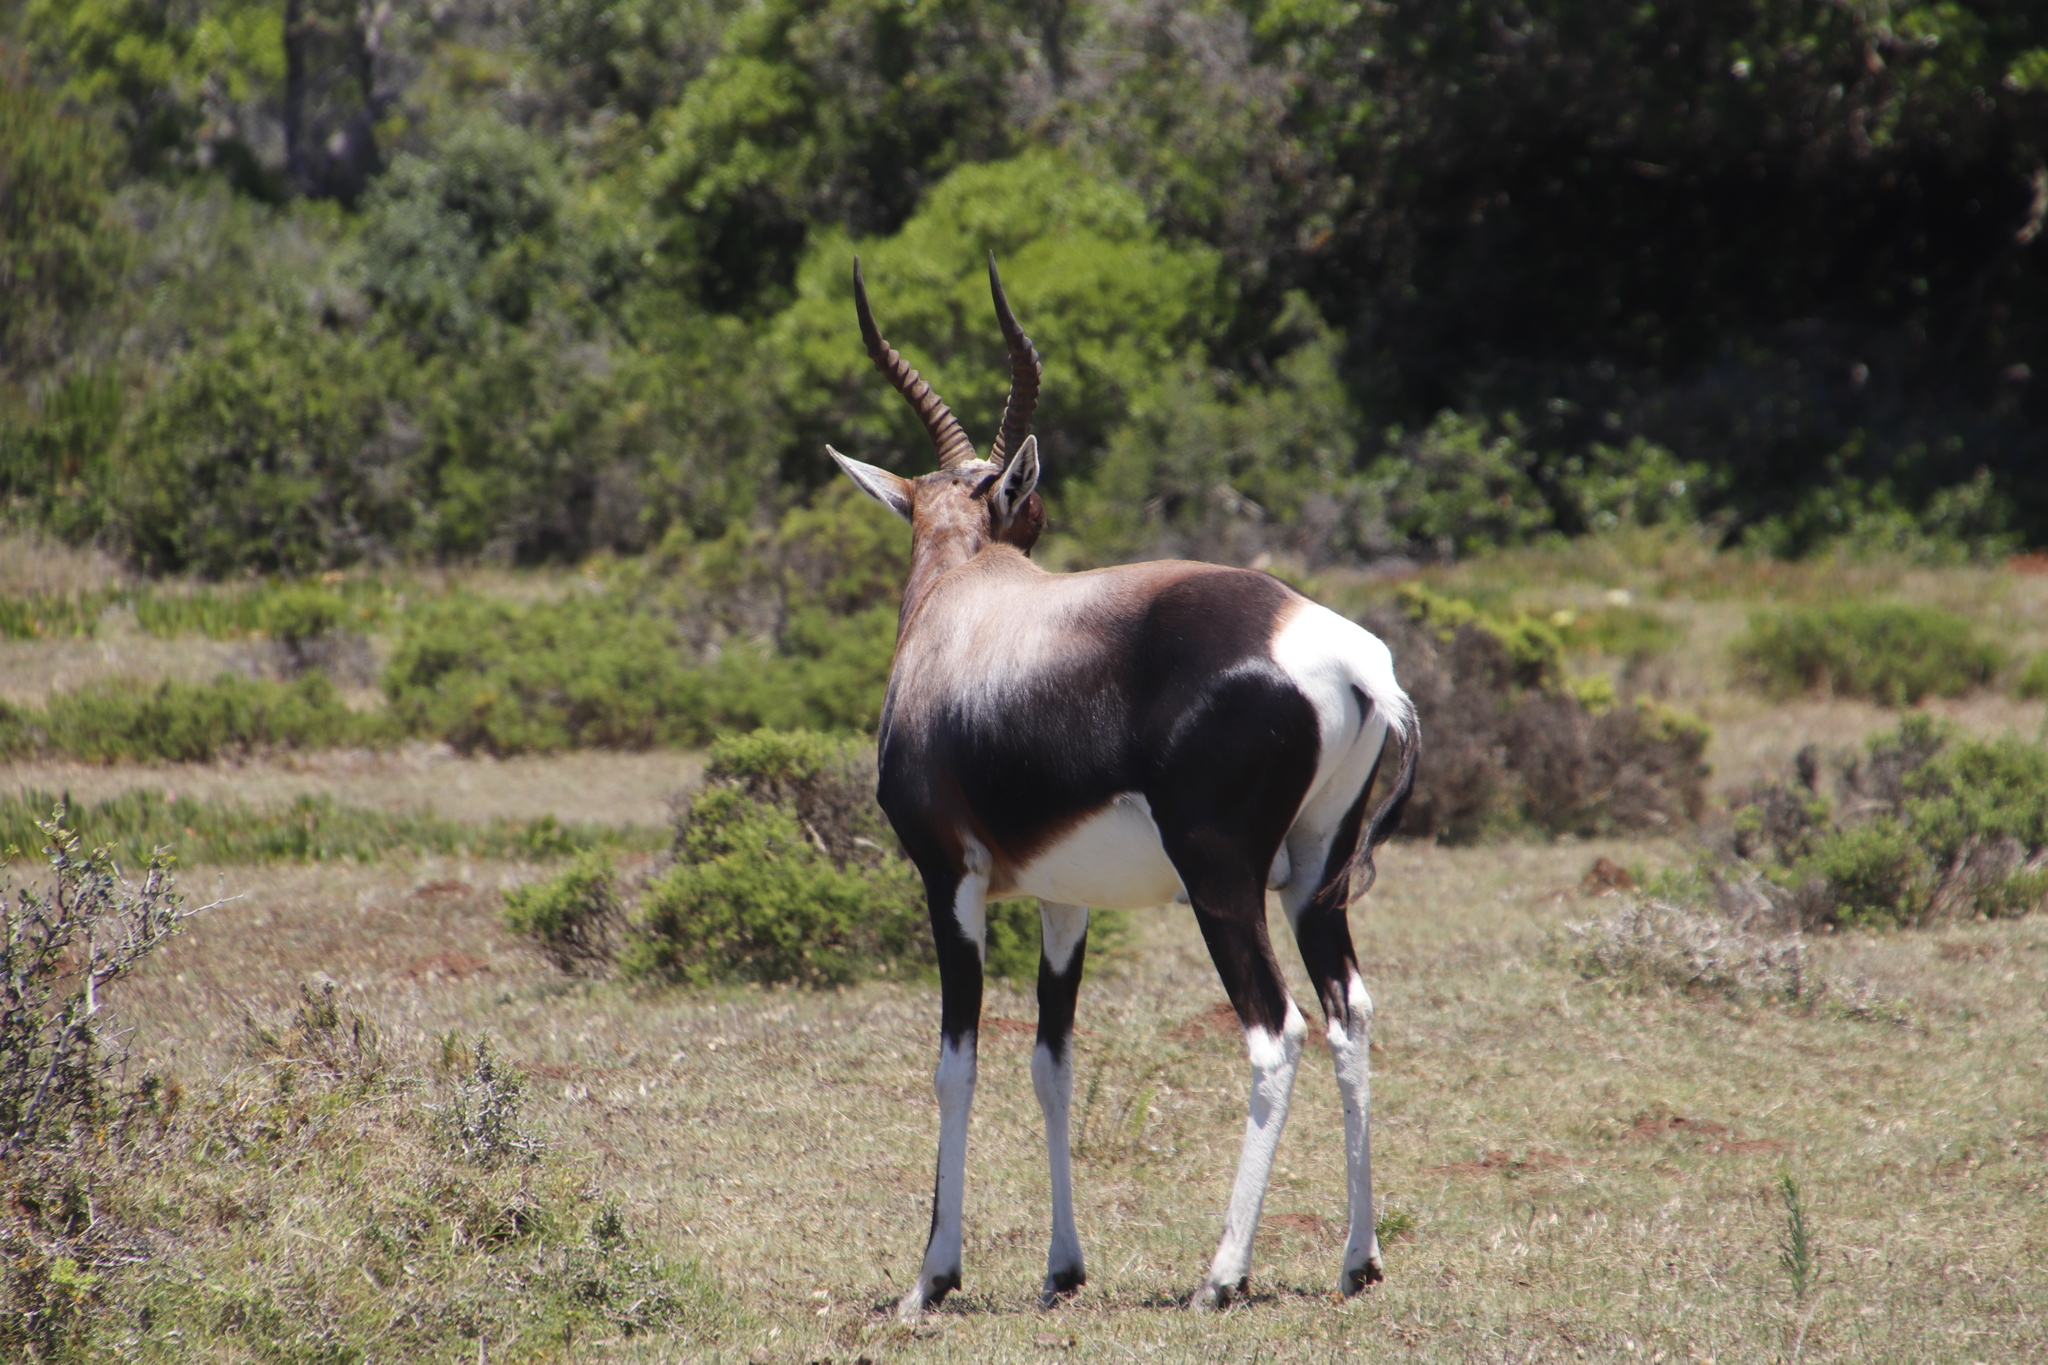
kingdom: Animalia
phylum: Chordata
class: Mammalia
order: Artiodactyla
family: Bovidae
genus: Damaliscus
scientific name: Damaliscus pygargus
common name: Bontebok
